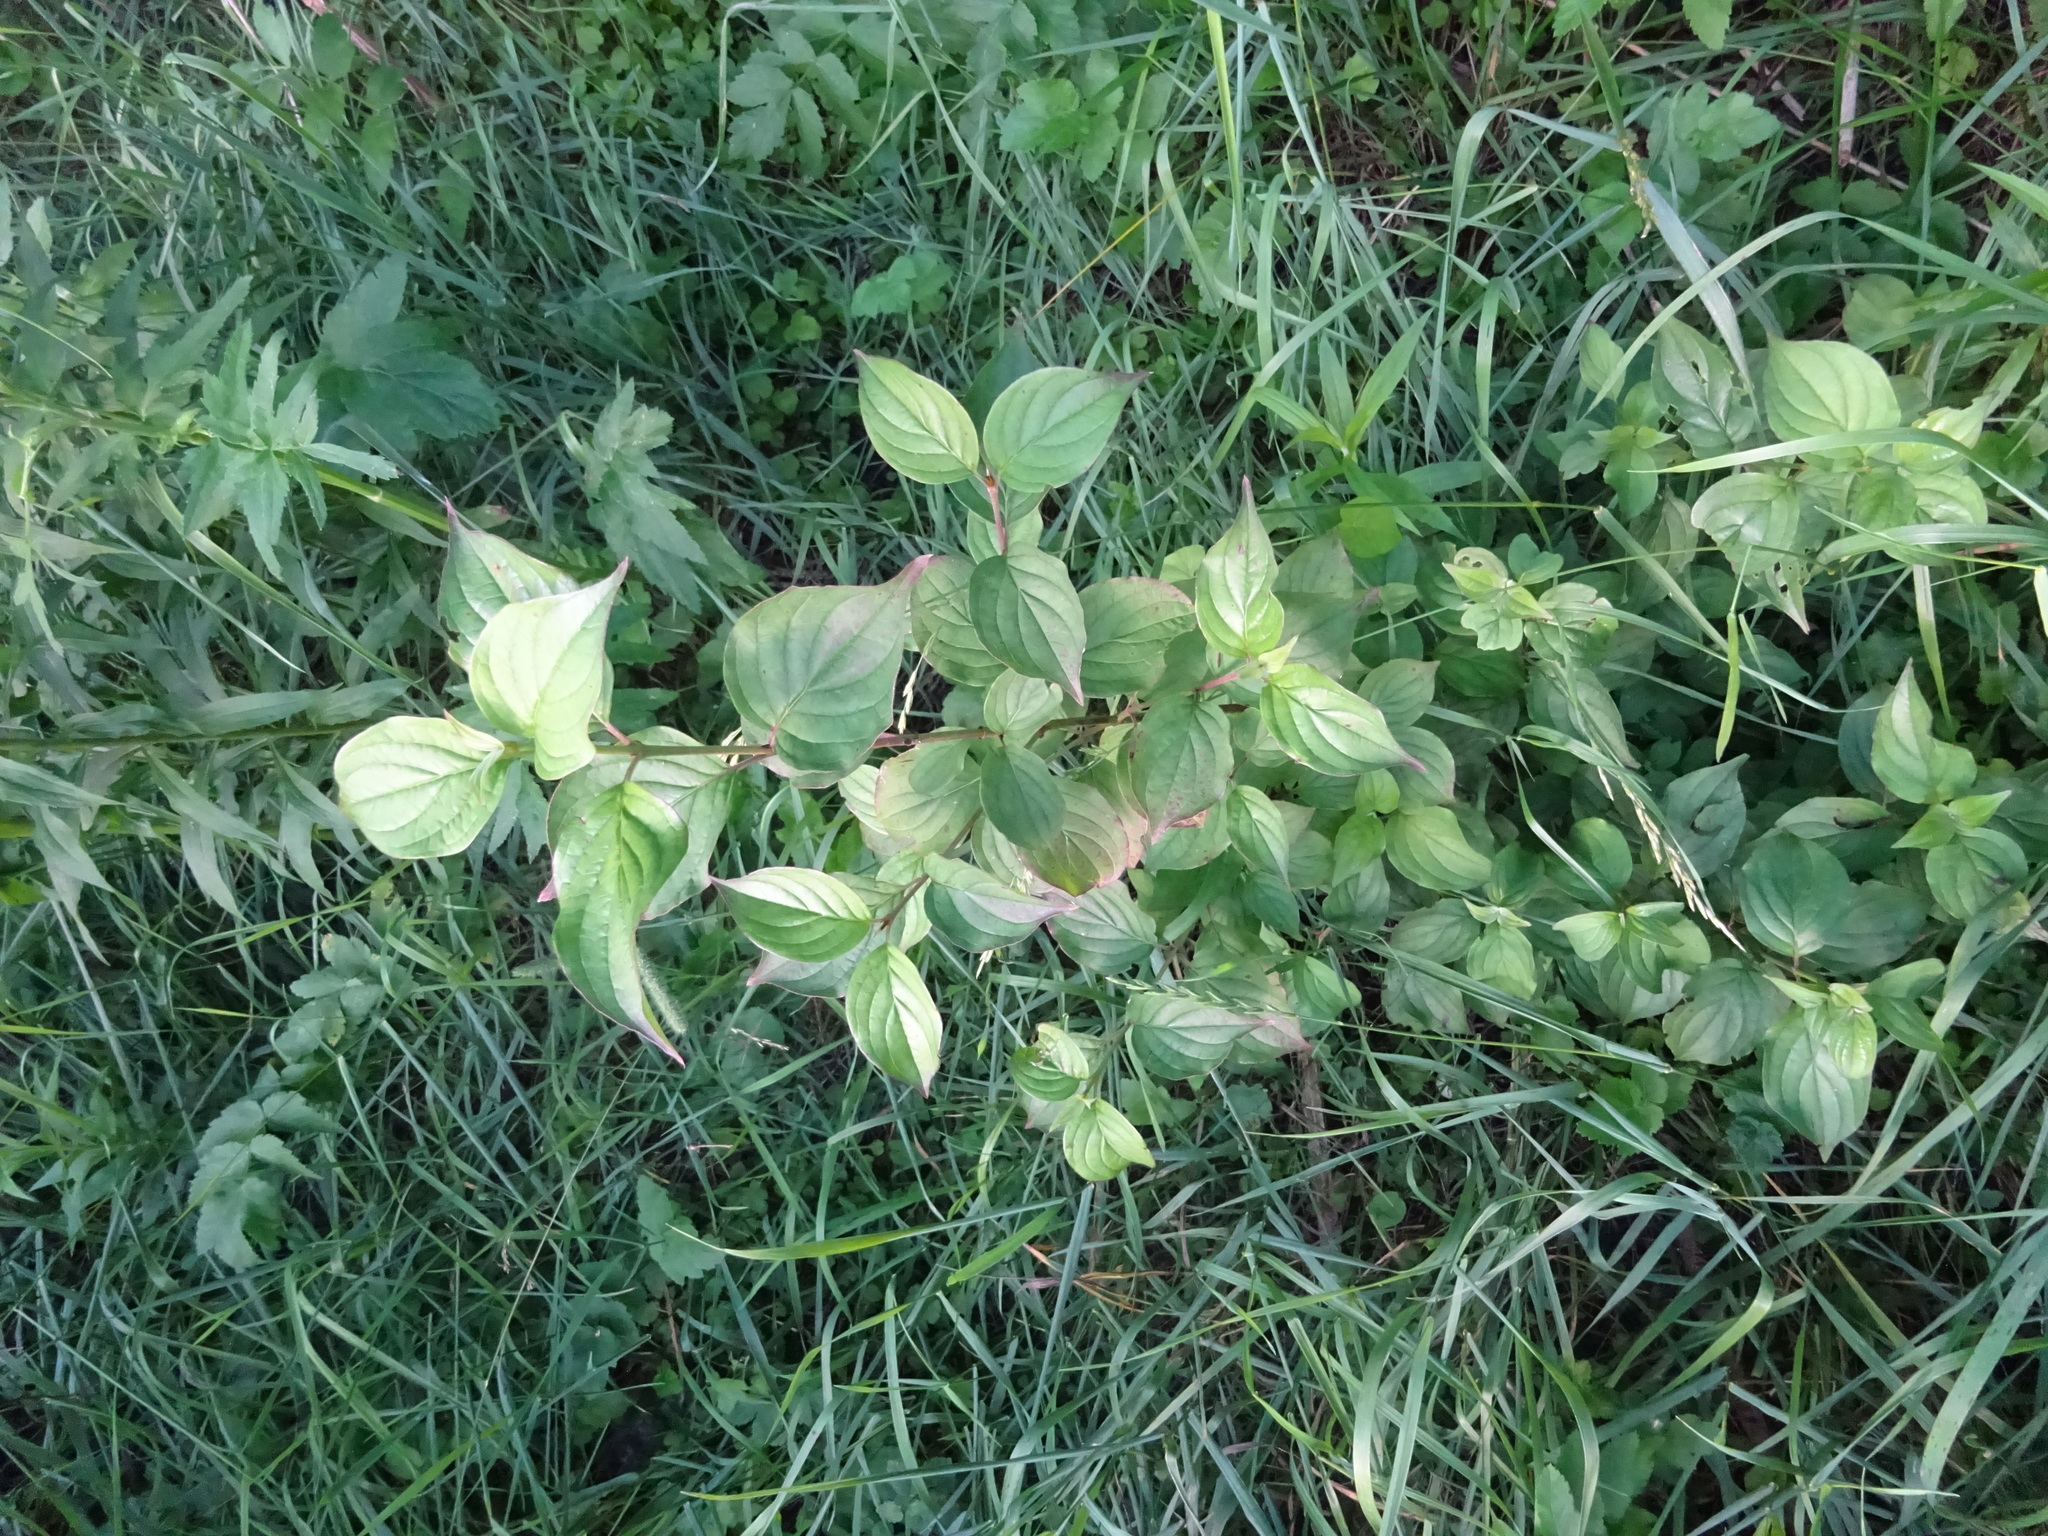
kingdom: Plantae
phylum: Tracheophyta
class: Magnoliopsida
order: Cornales
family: Cornaceae
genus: Cornus
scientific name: Cornus sanguinea
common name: Dogwood
